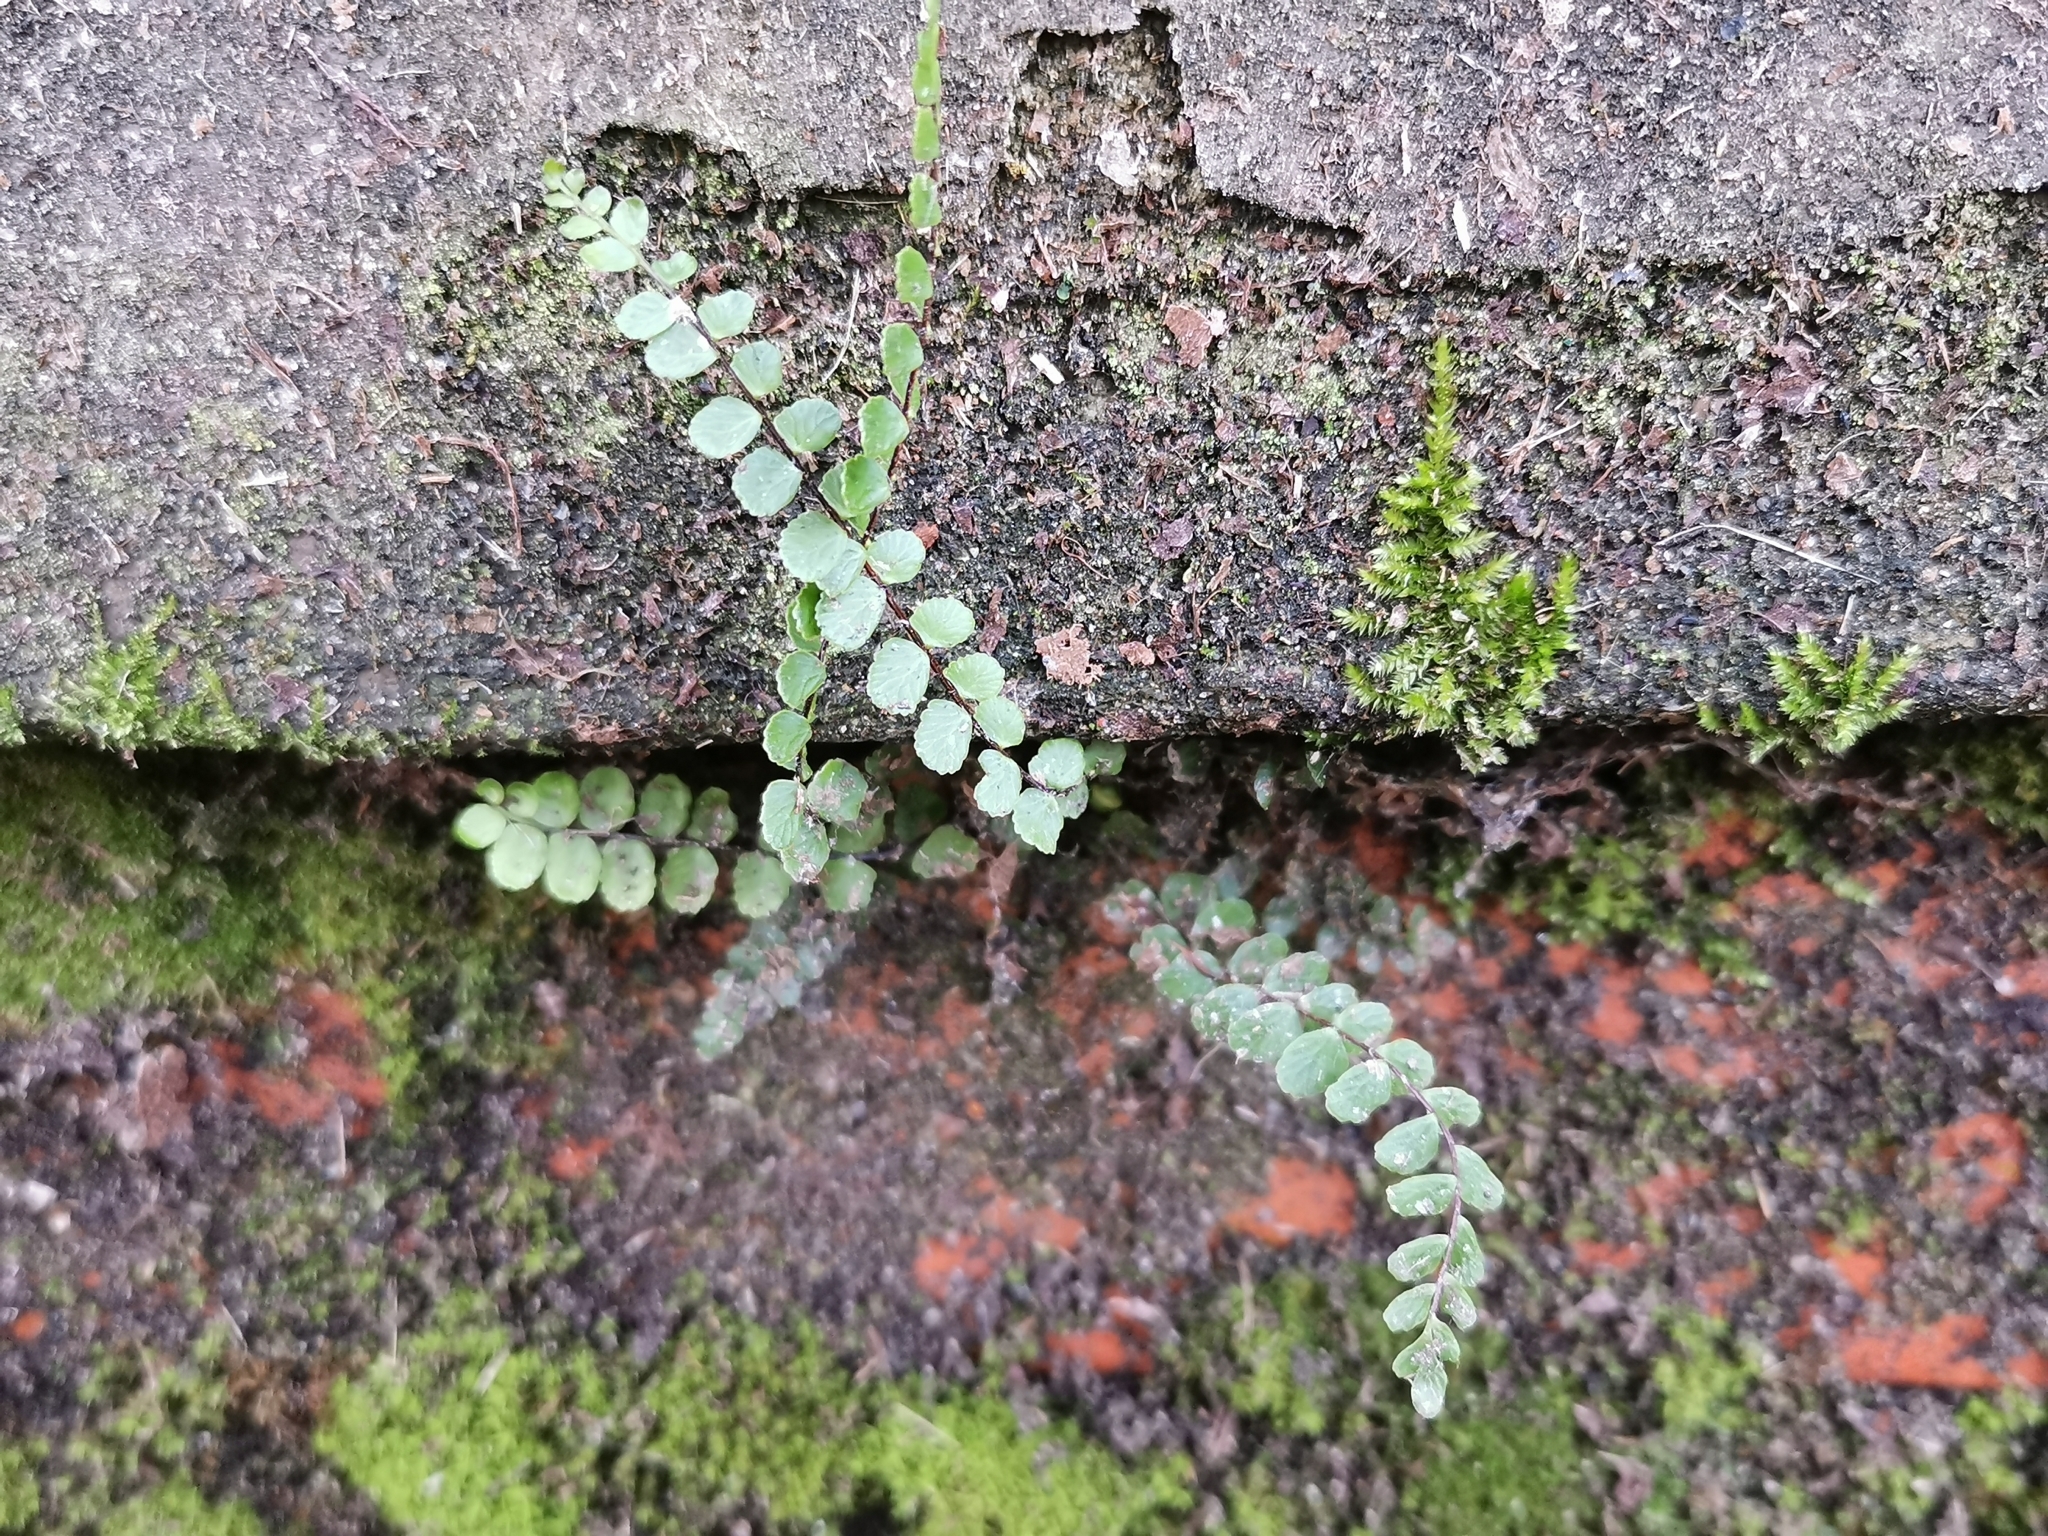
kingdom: Plantae
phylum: Tracheophyta
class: Polypodiopsida
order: Polypodiales
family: Aspleniaceae
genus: Asplenium
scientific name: Asplenium trichomanes
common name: Maidenhair spleenwort
